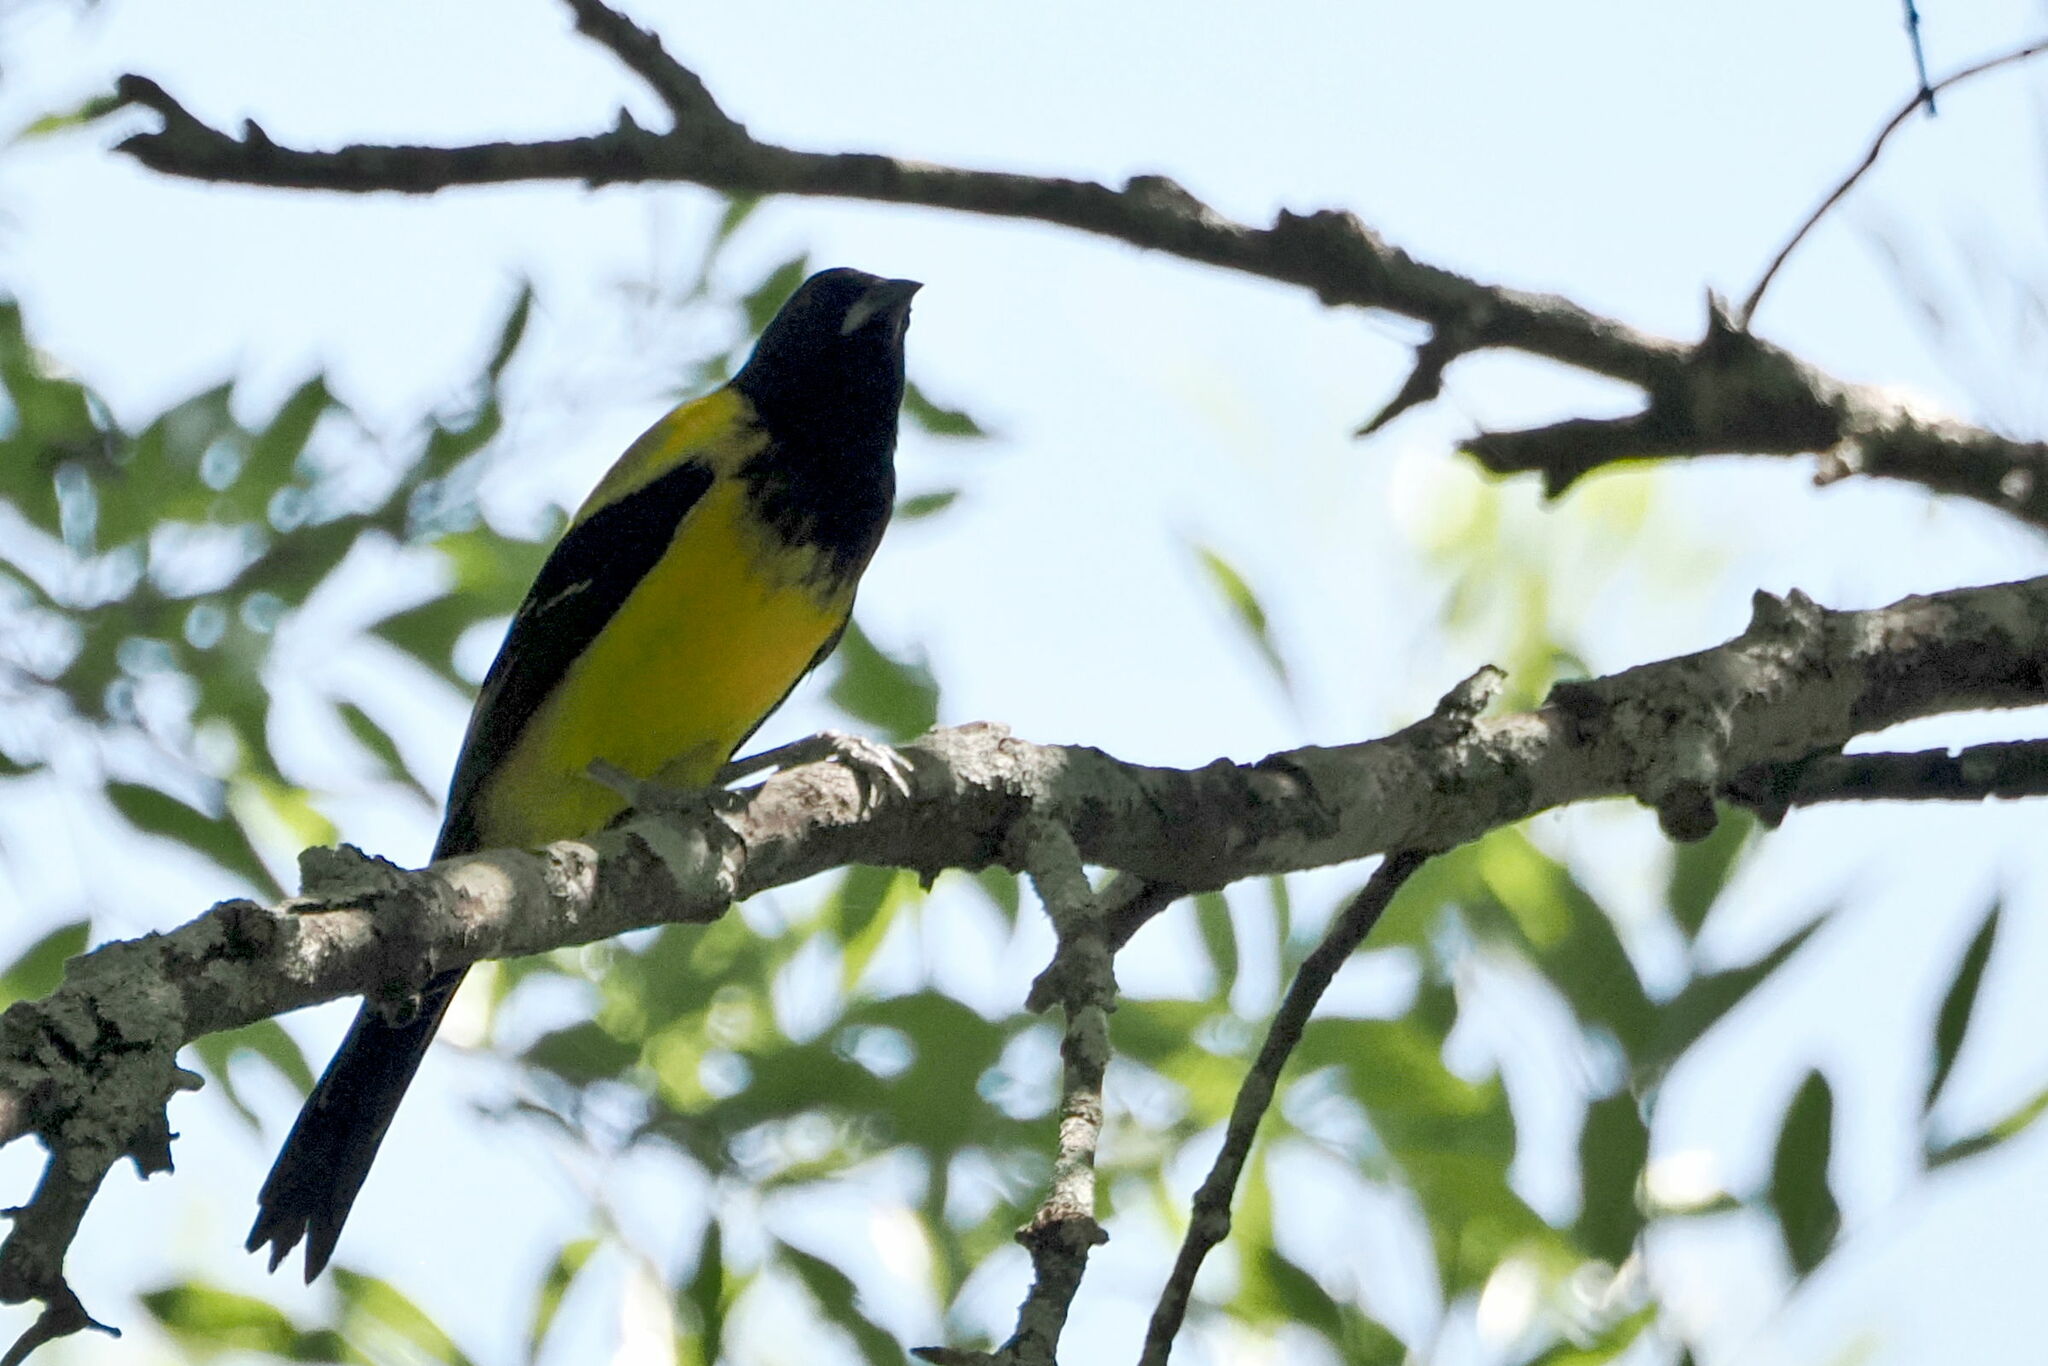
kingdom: Animalia
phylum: Chordata
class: Aves
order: Passeriformes
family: Icteridae
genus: Icterus
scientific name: Icterus graduacauda
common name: Audubon's oriole
